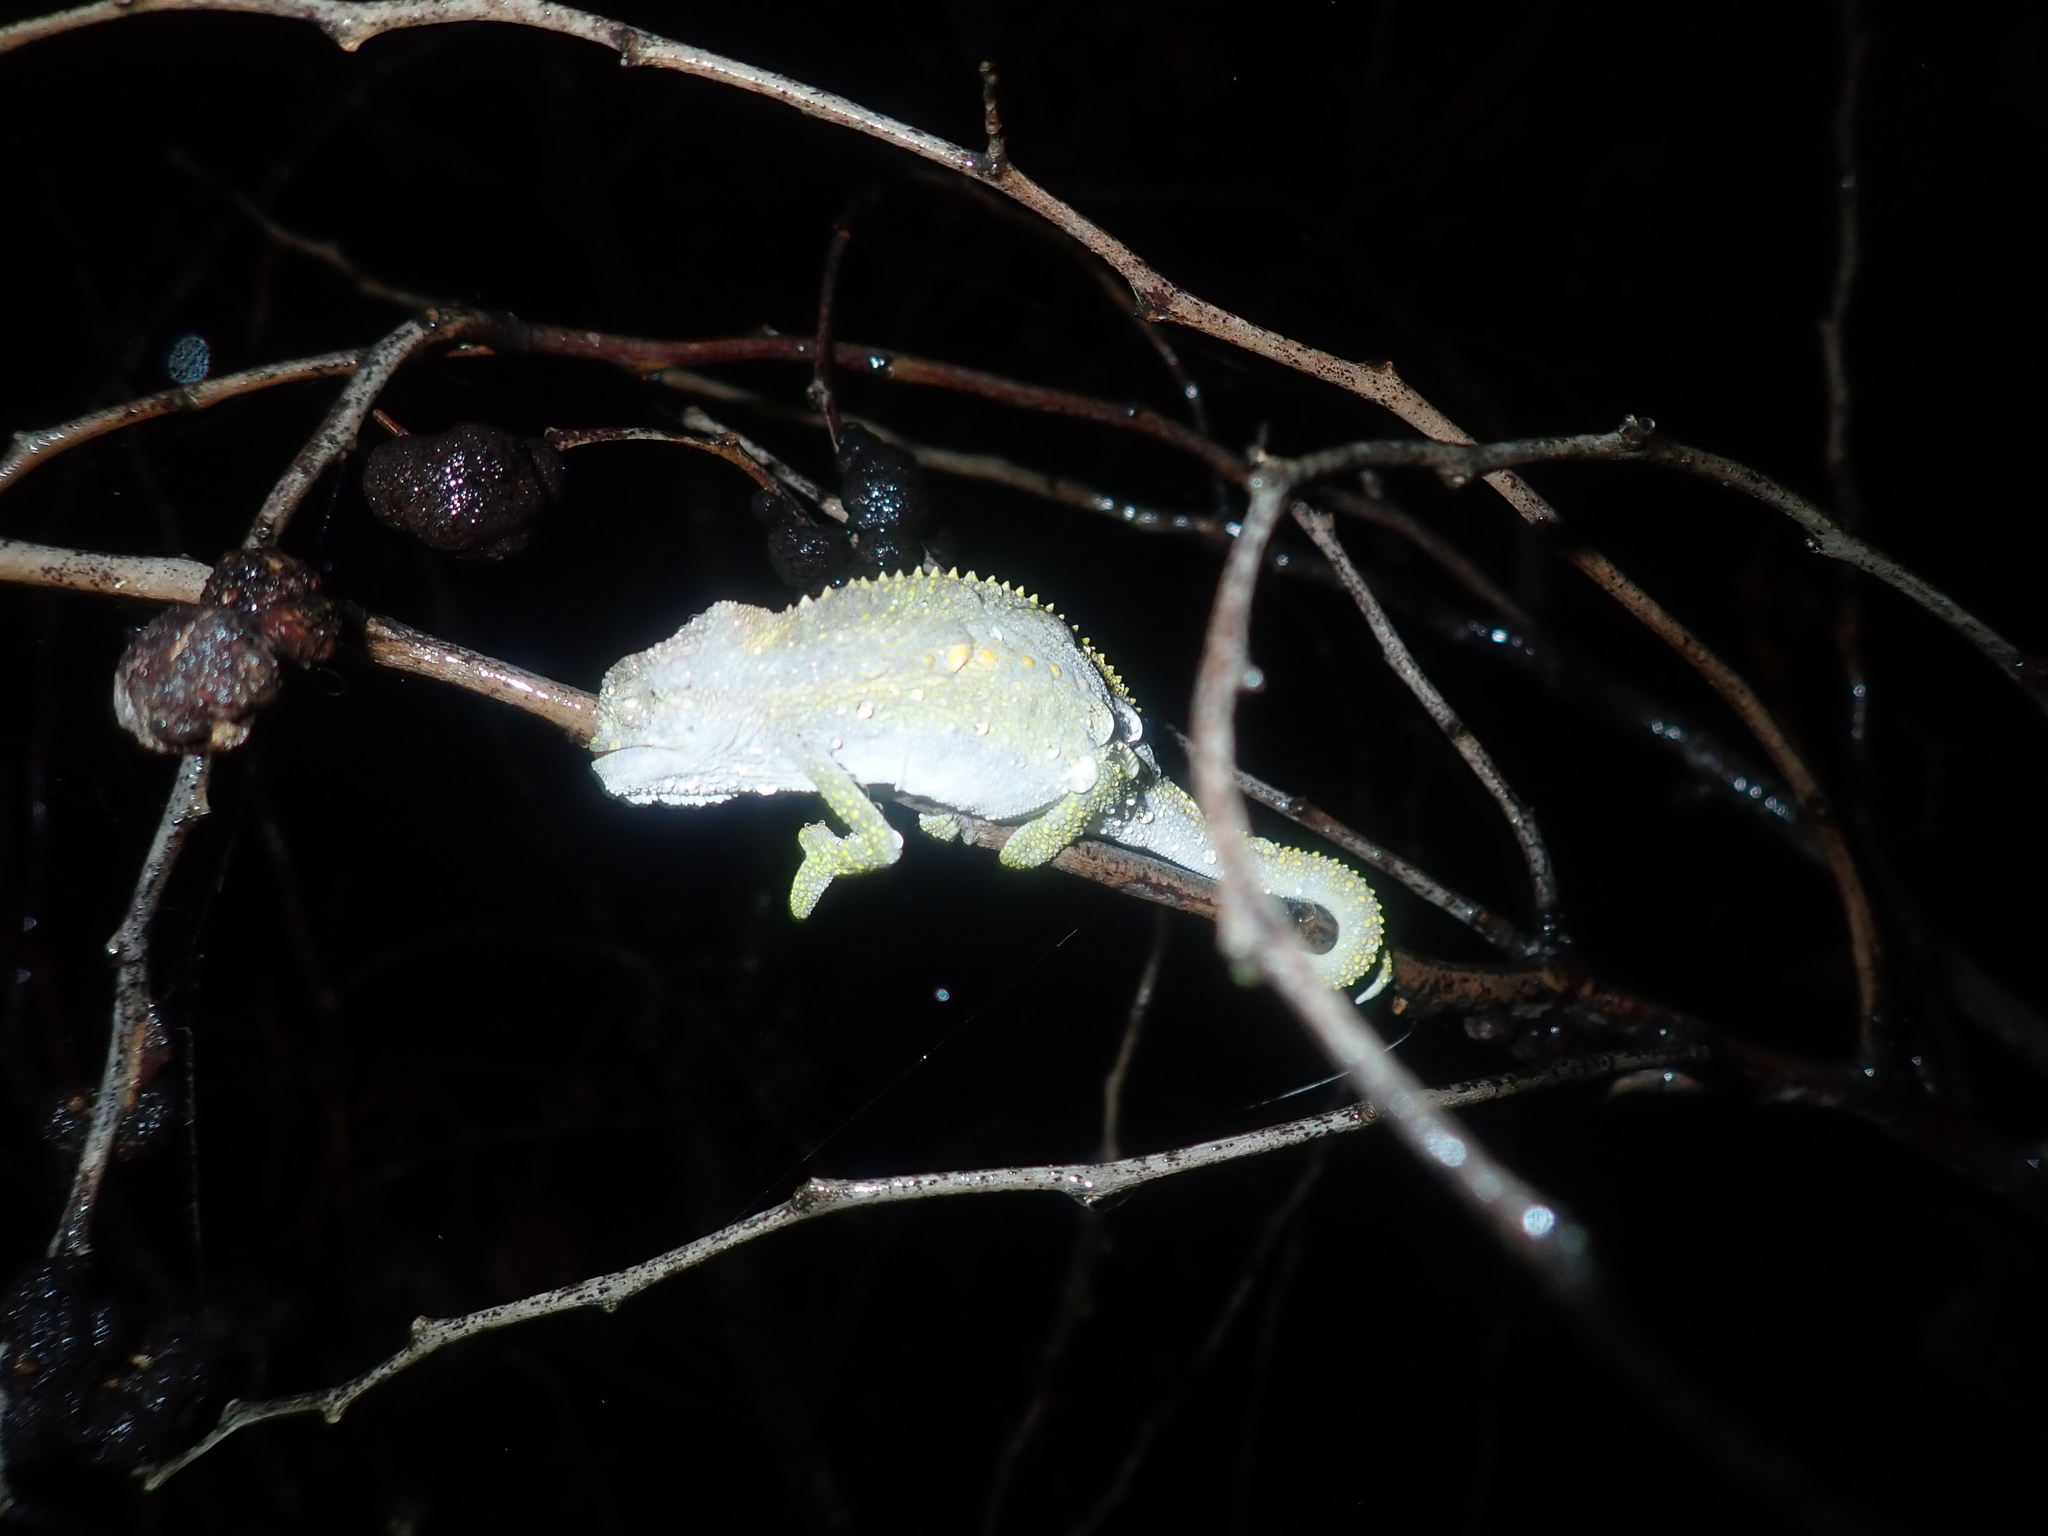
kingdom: Animalia
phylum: Chordata
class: Squamata
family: Chamaeleonidae
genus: Bradypodion
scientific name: Bradypodion pumilum
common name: Cape dwarf chameleon
